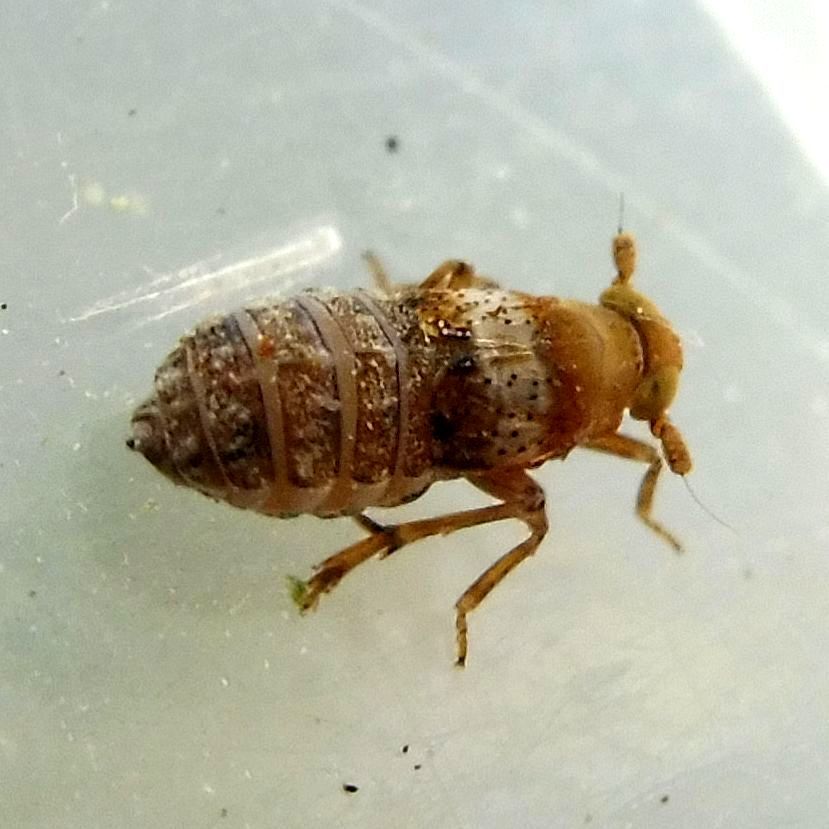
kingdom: Animalia
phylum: Arthropoda
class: Insecta
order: Hemiptera
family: Delphacidae
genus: Conomelus
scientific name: Conomelus anceps
